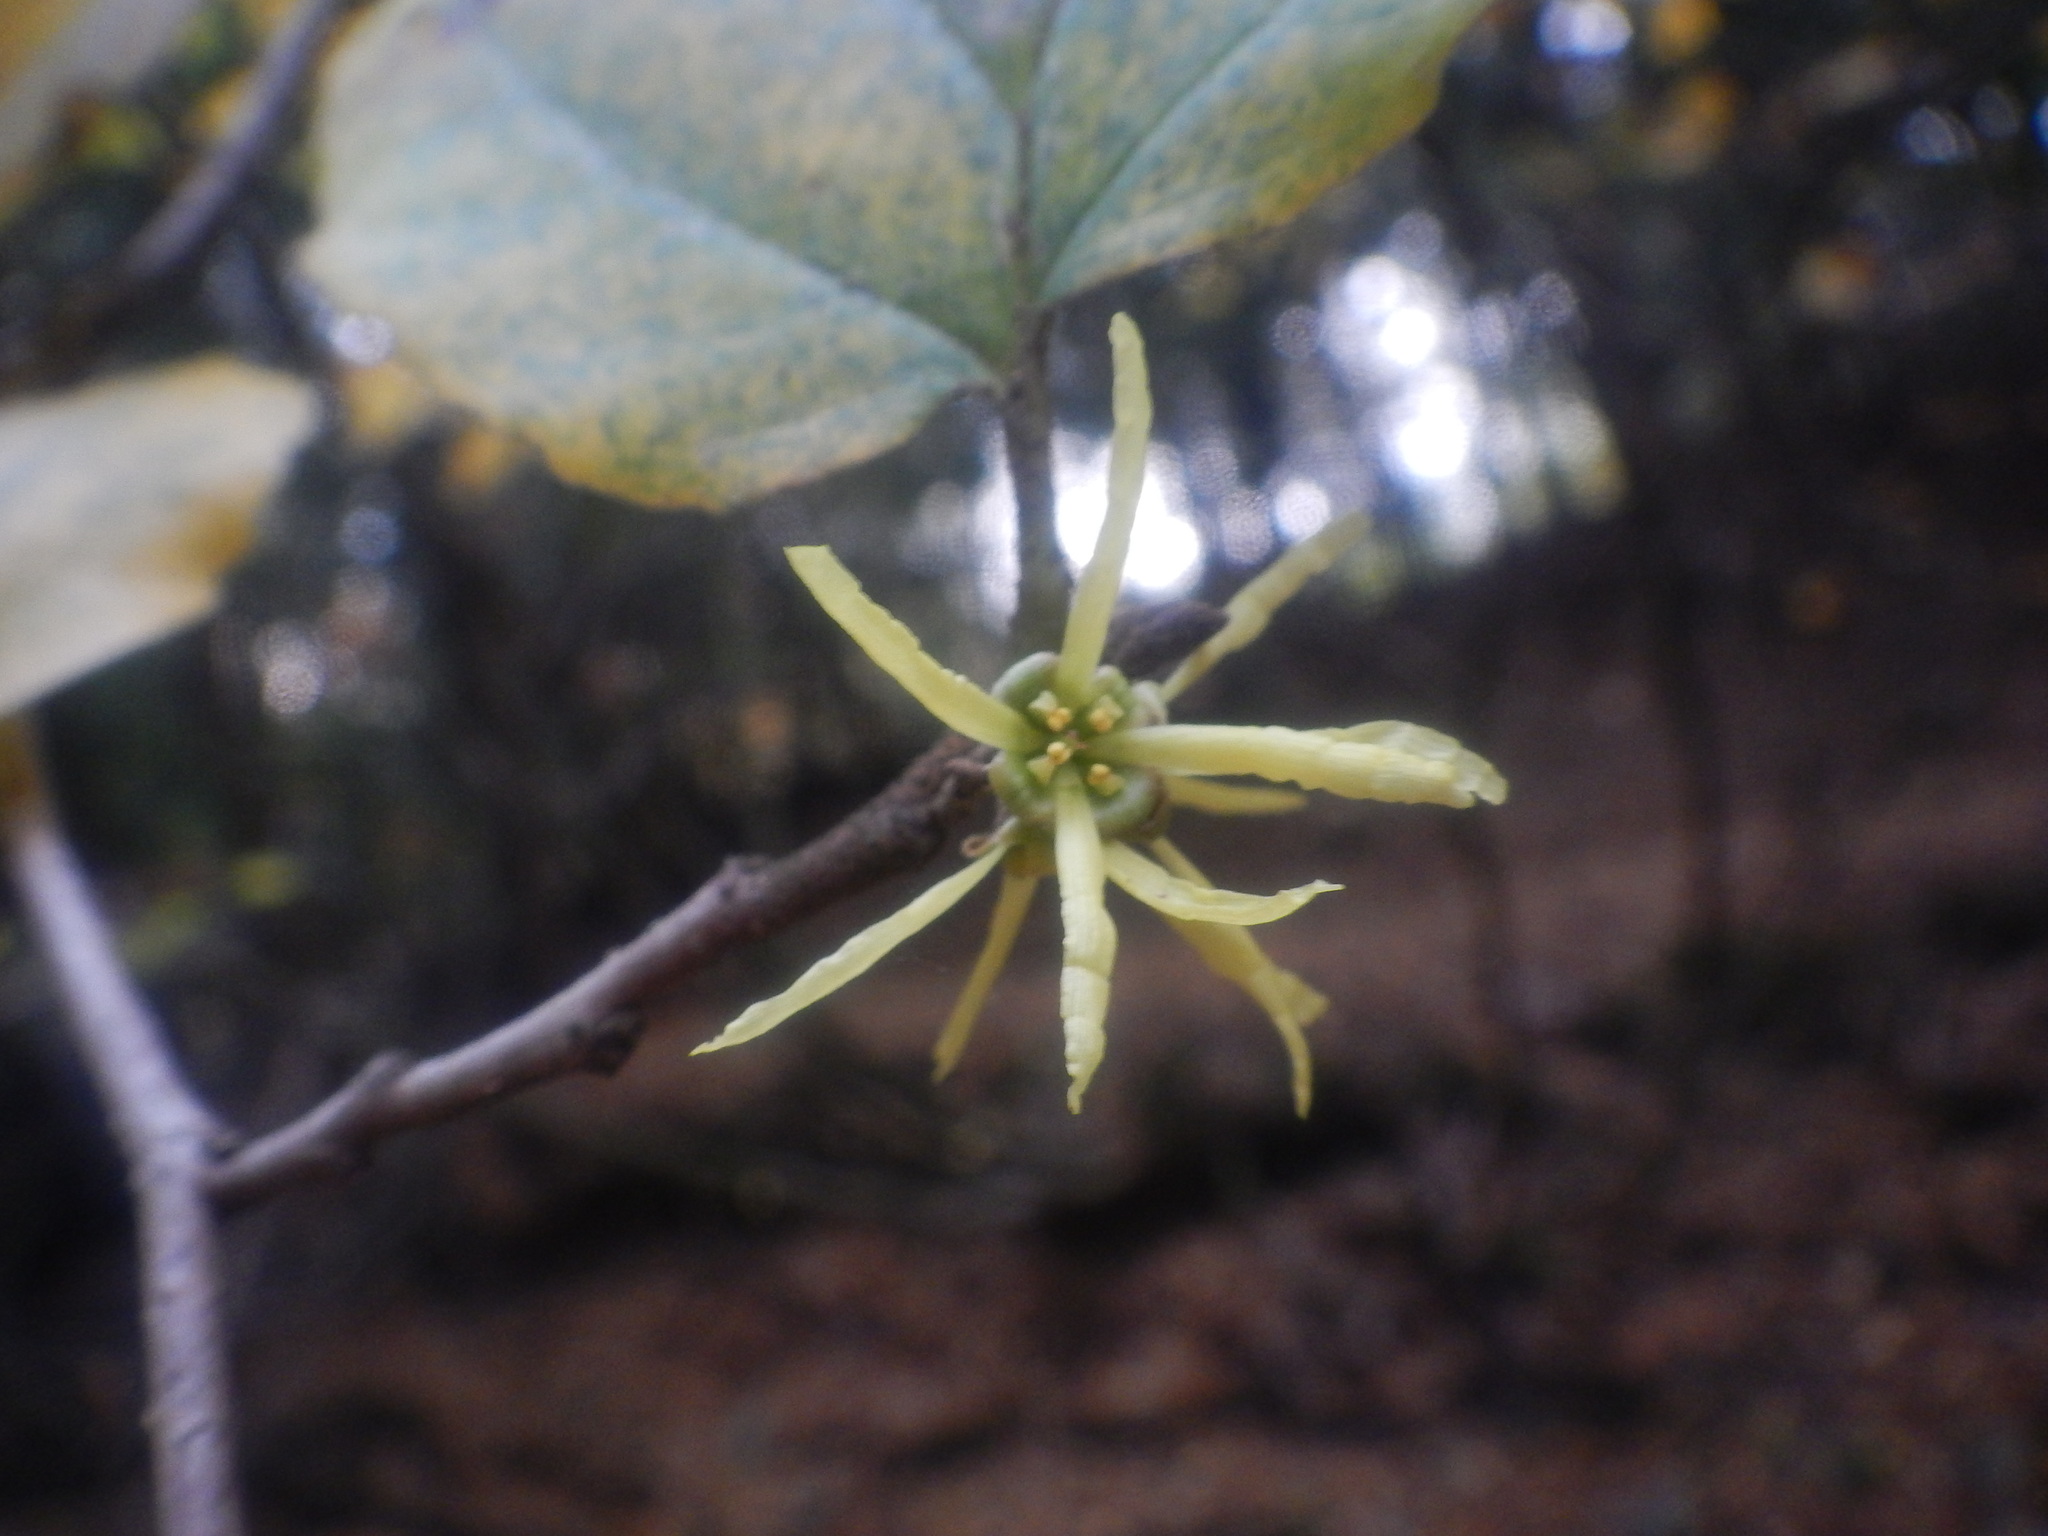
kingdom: Plantae
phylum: Tracheophyta
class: Magnoliopsida
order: Saxifragales
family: Hamamelidaceae
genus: Hamamelis
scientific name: Hamamelis virginiana
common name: Witch-hazel
